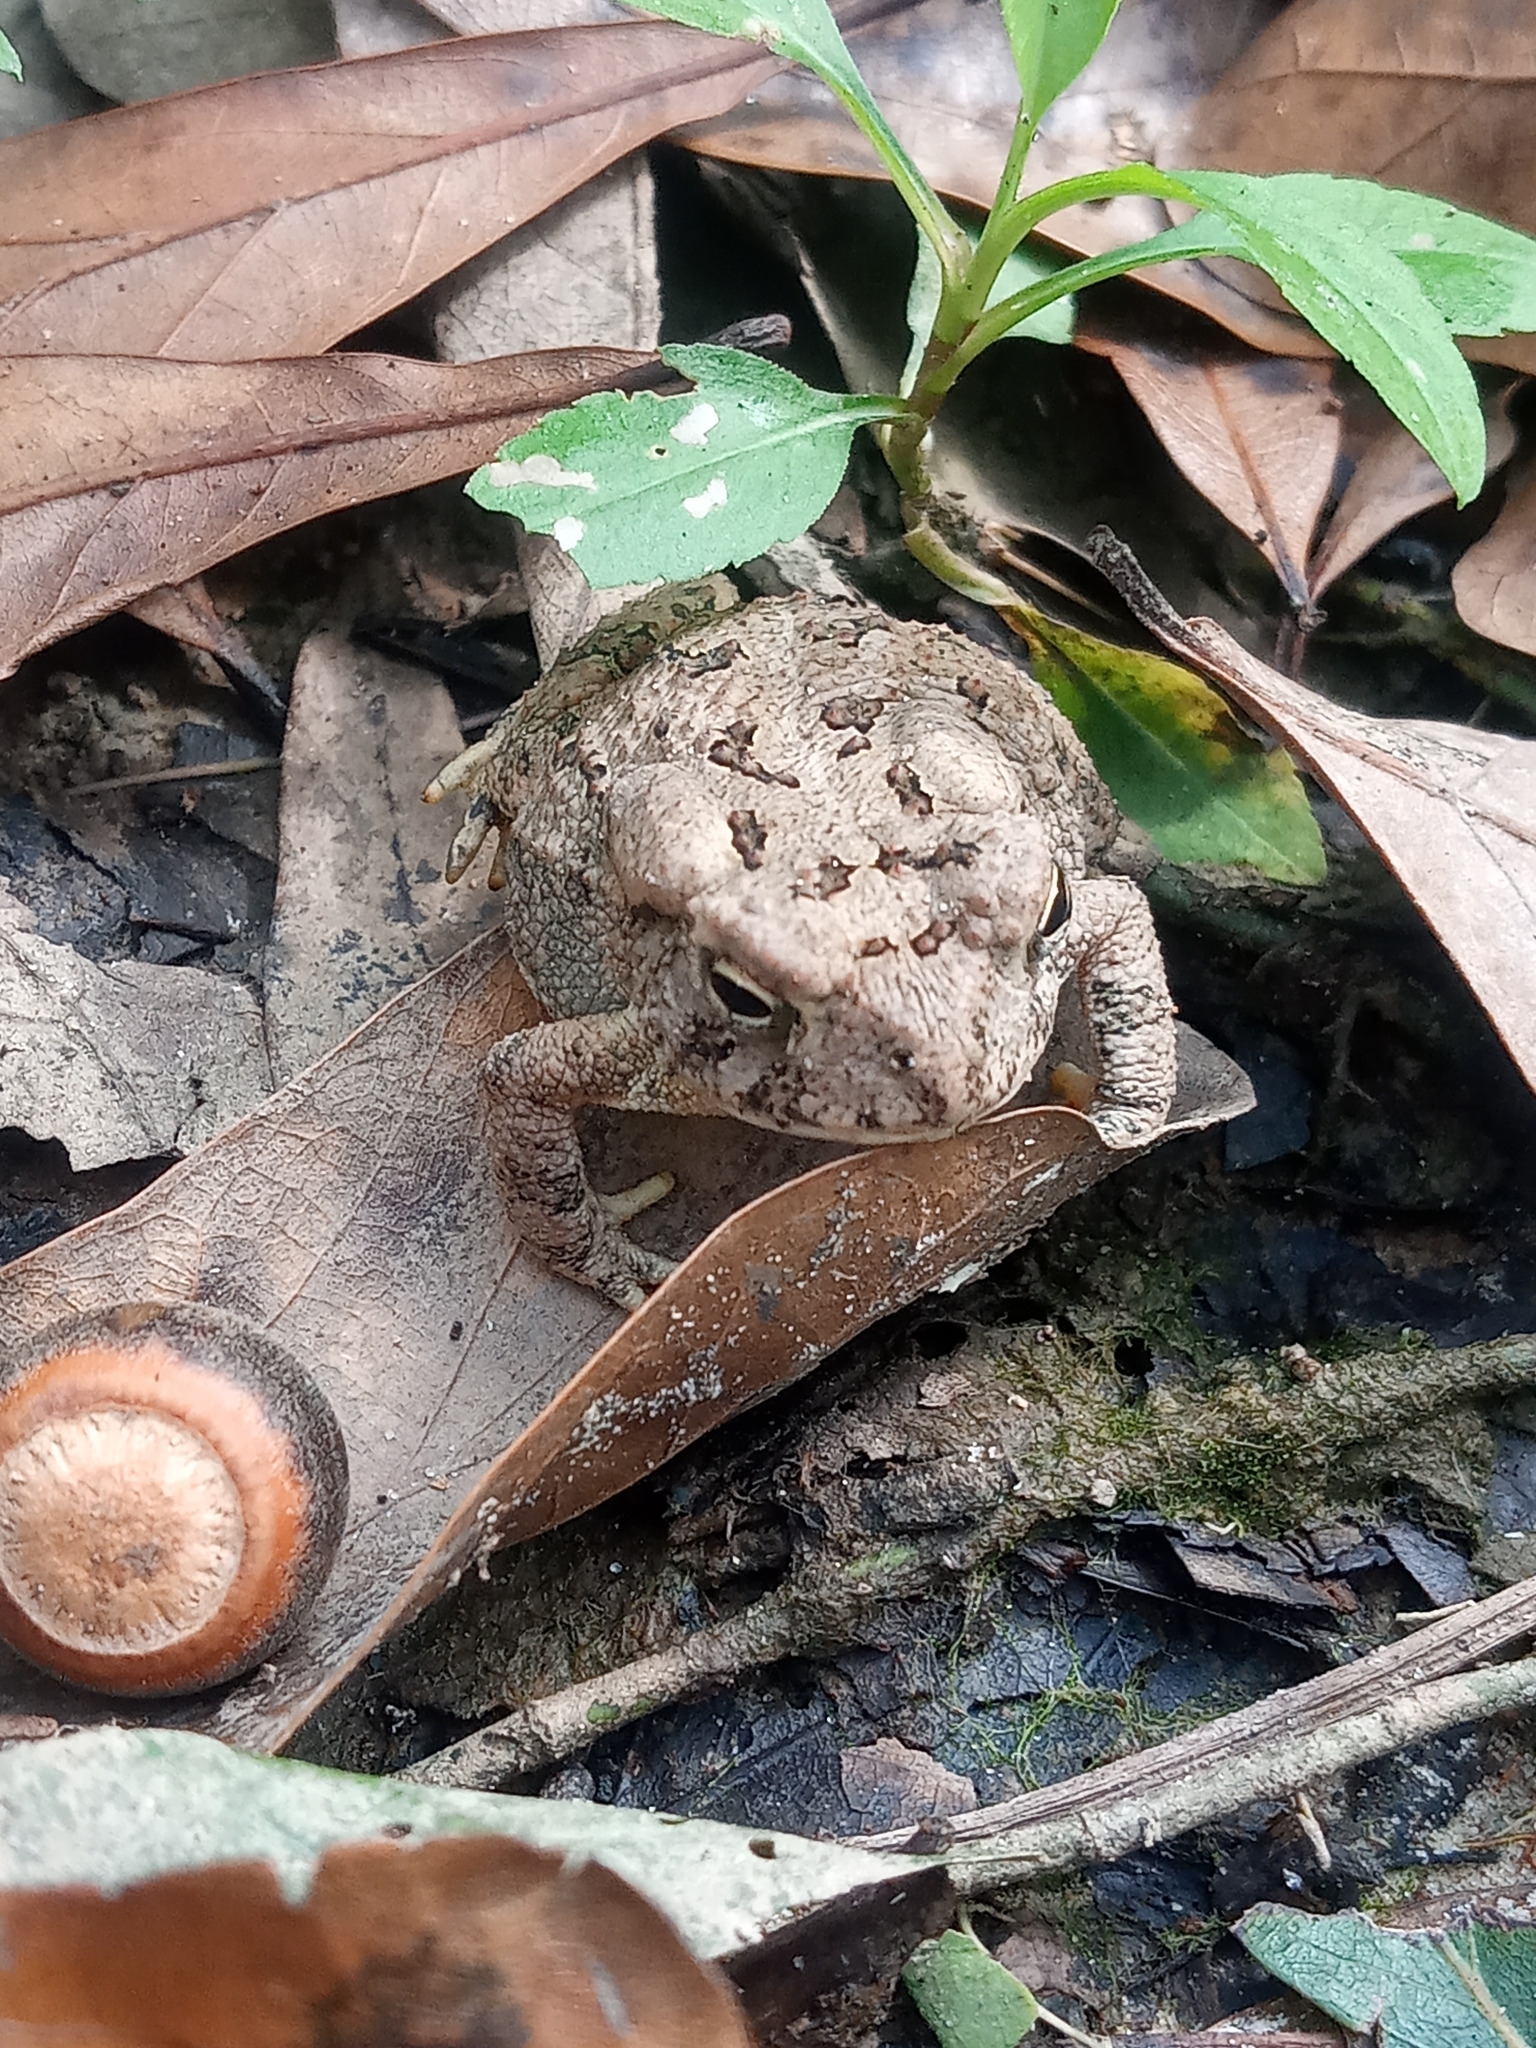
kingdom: Animalia
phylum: Chordata
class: Amphibia
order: Anura
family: Bufonidae
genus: Anaxyrus
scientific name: Anaxyrus fowleri
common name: Fowler's toad
